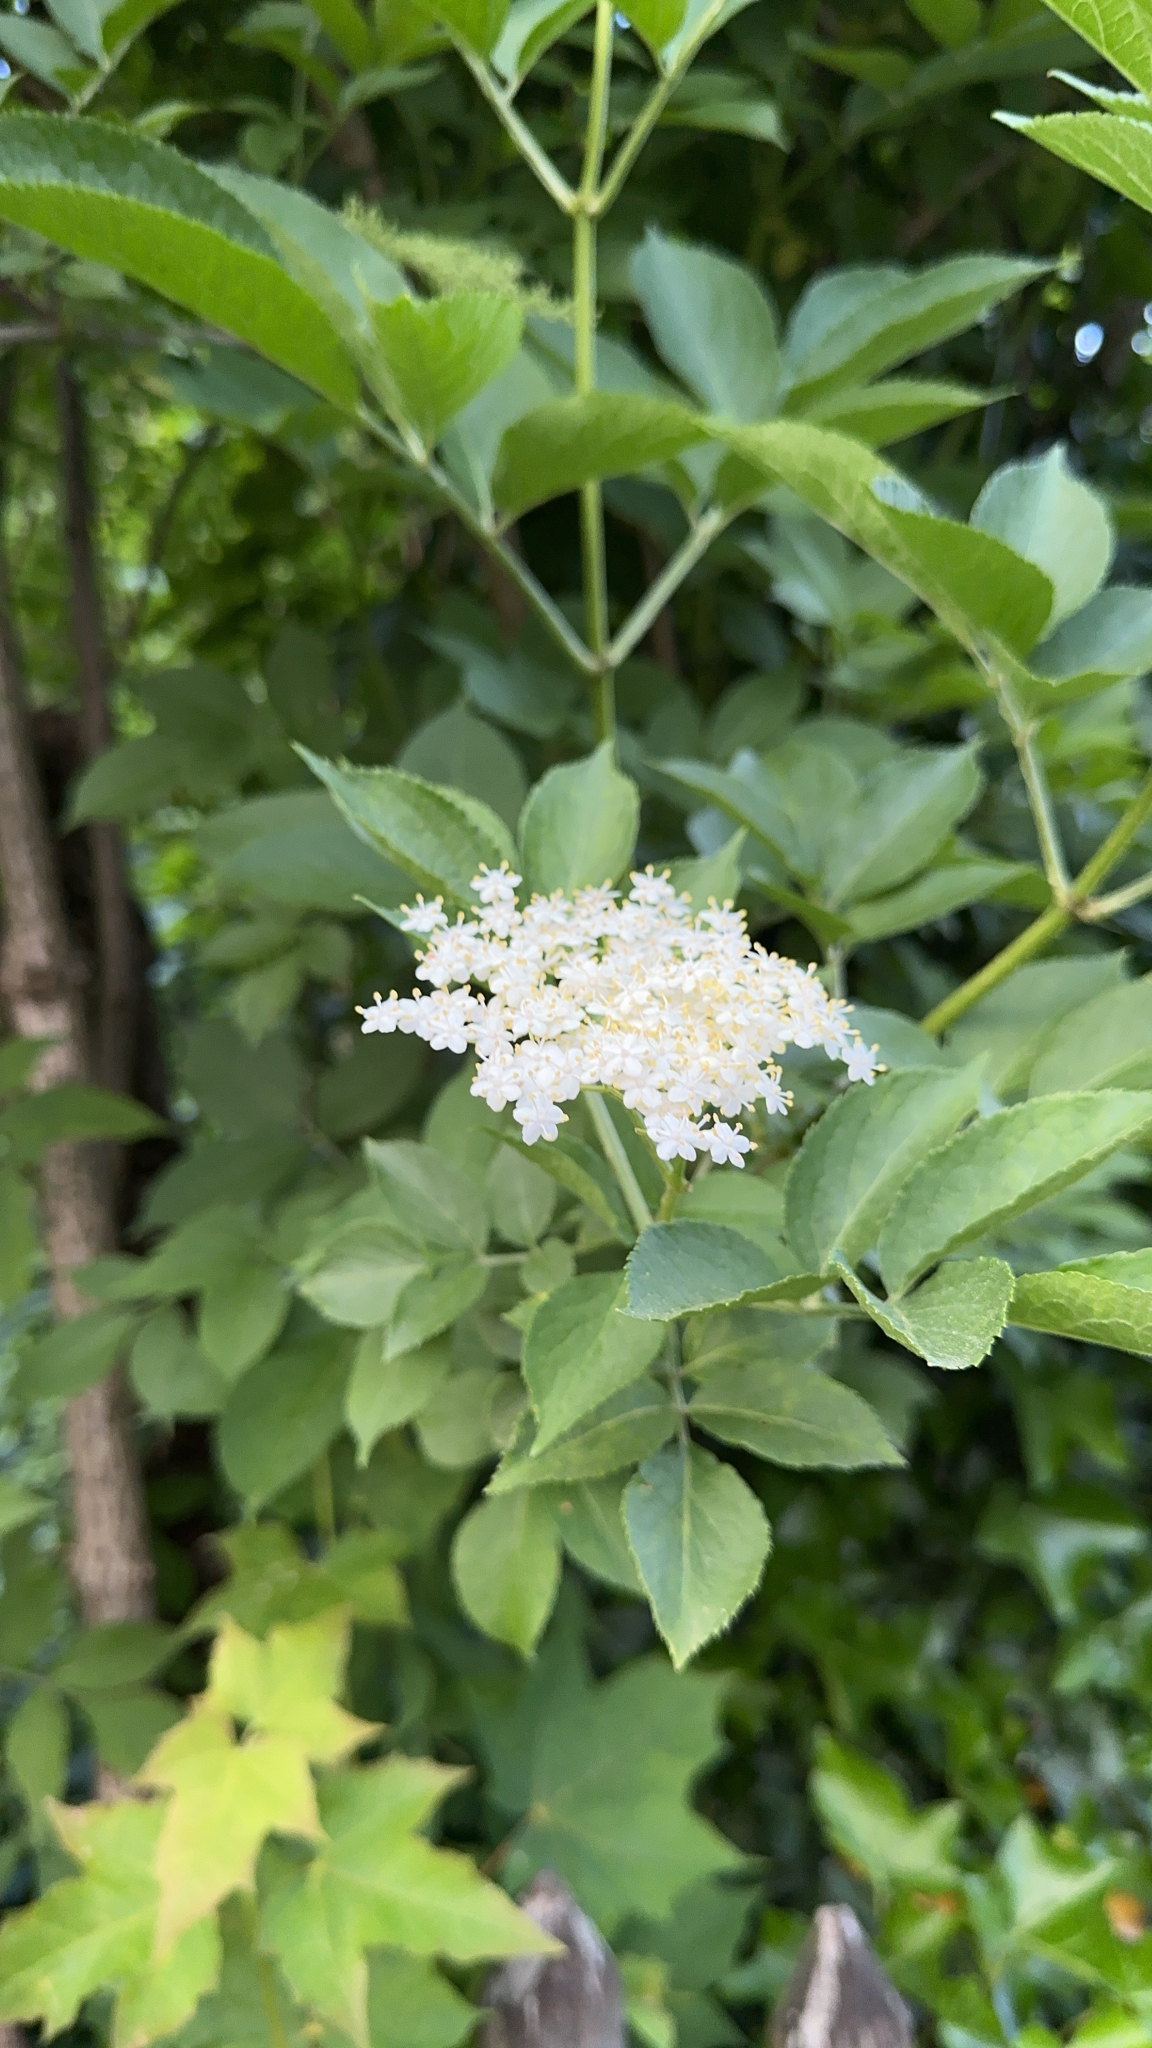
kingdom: Plantae
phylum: Tracheophyta
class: Magnoliopsida
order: Dipsacales
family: Viburnaceae
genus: Sambucus
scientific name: Sambucus nigra
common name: Elder
